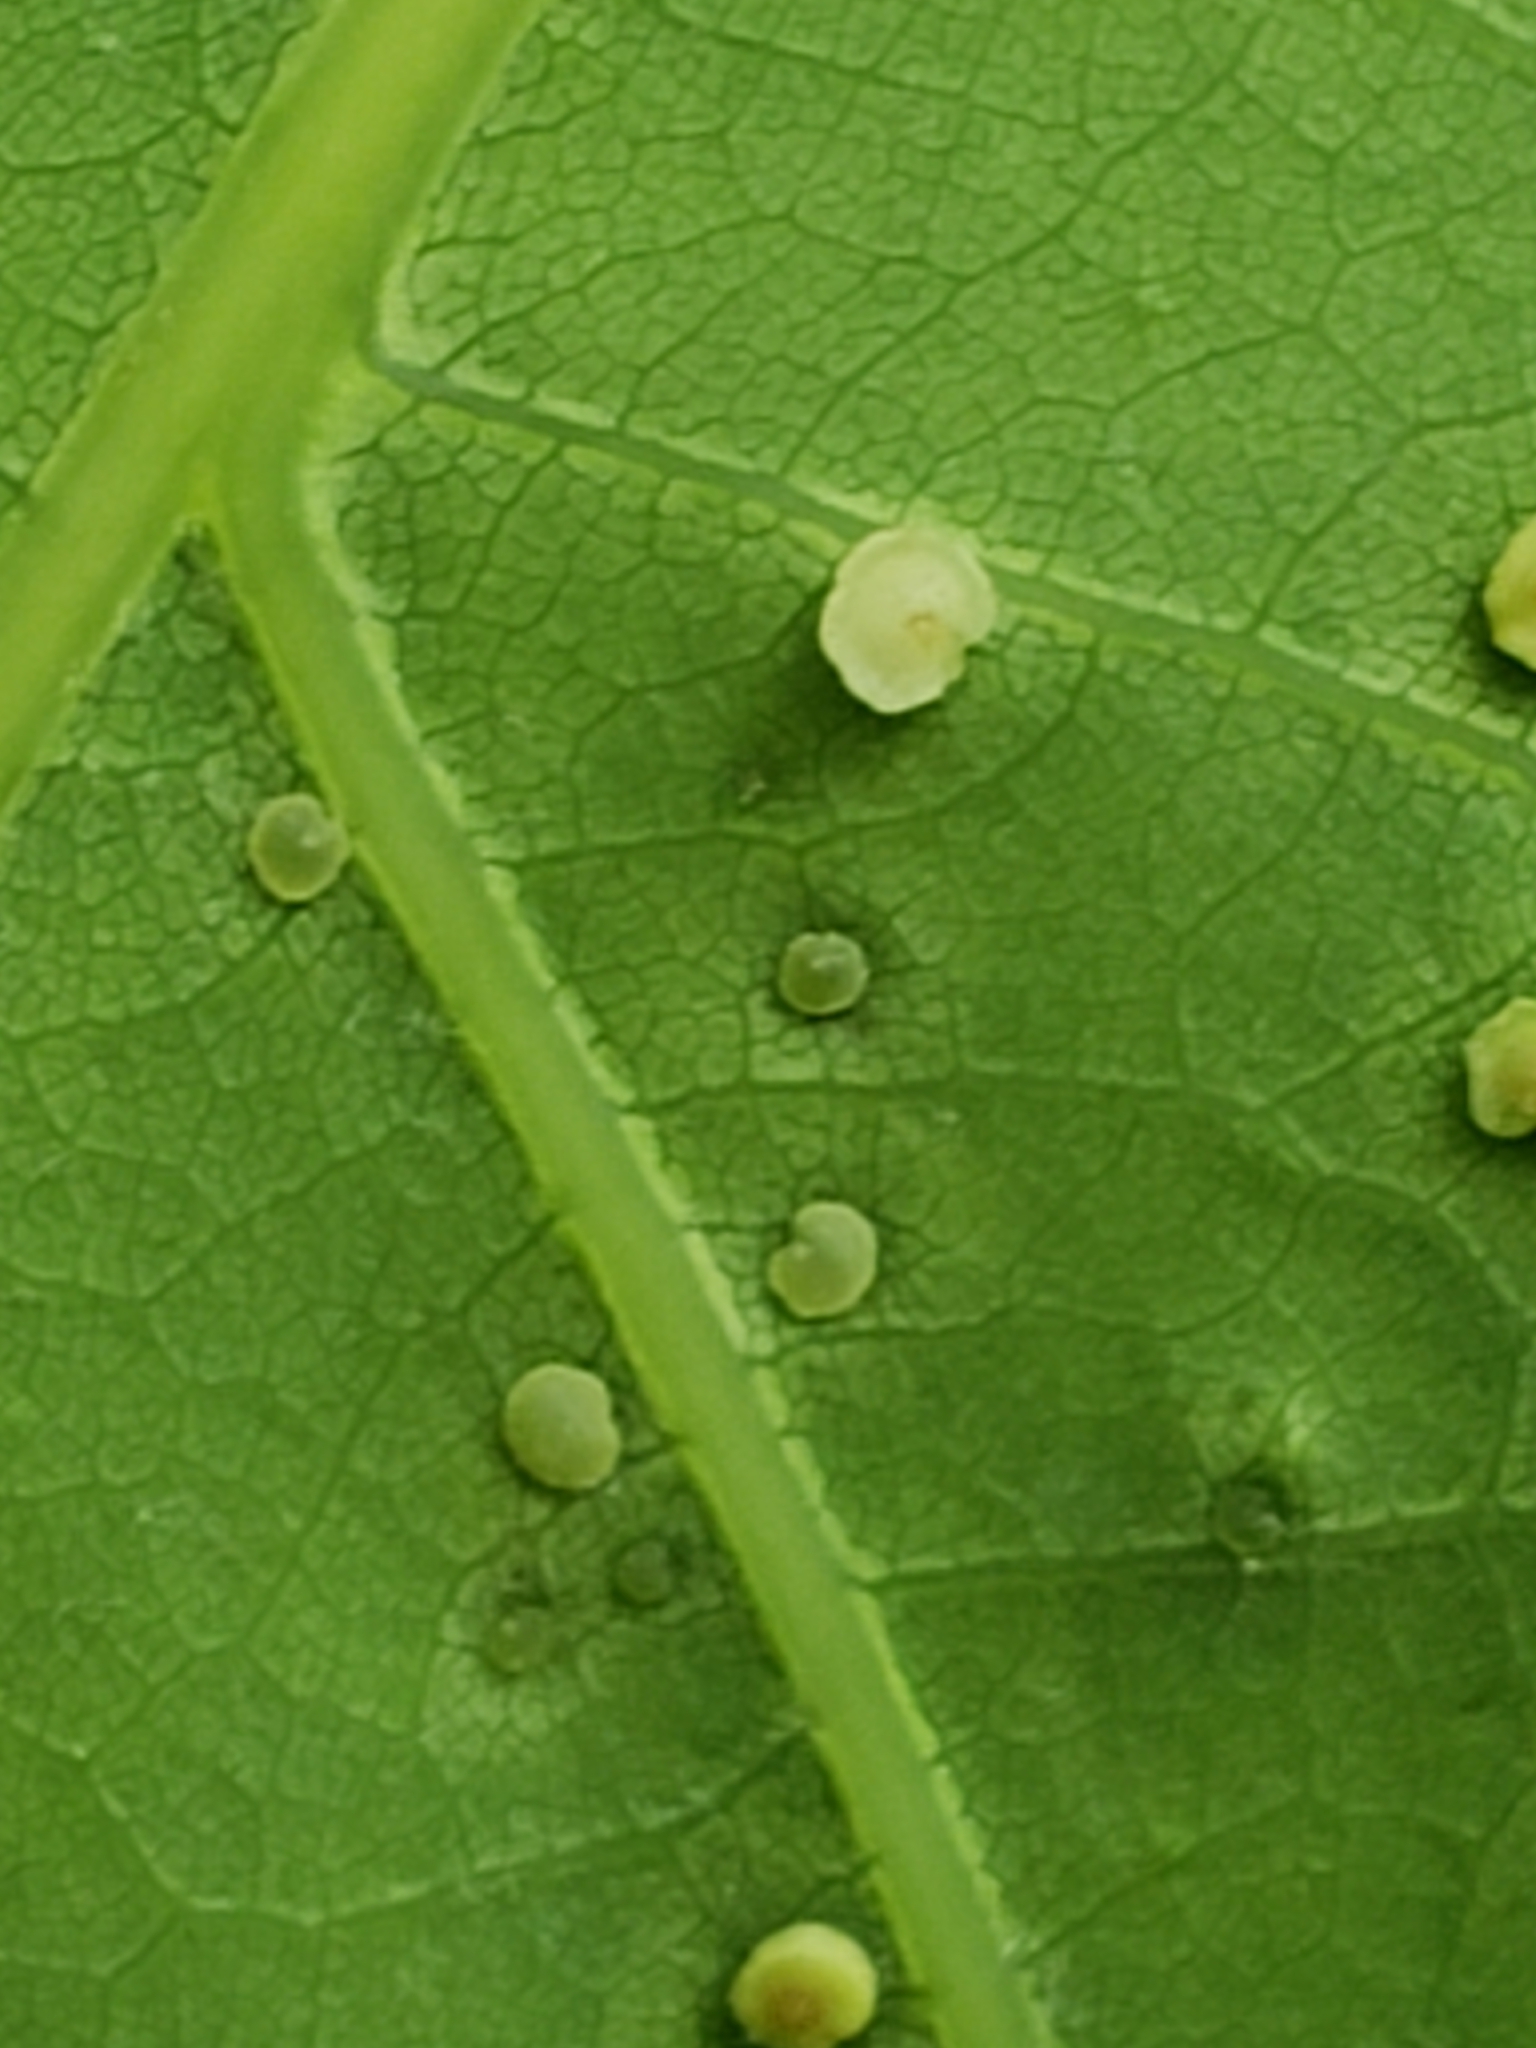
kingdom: Animalia
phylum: Arthropoda
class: Insecta
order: Hymenoptera
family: Cynipidae
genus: Neuroterus
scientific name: Neuroterus
